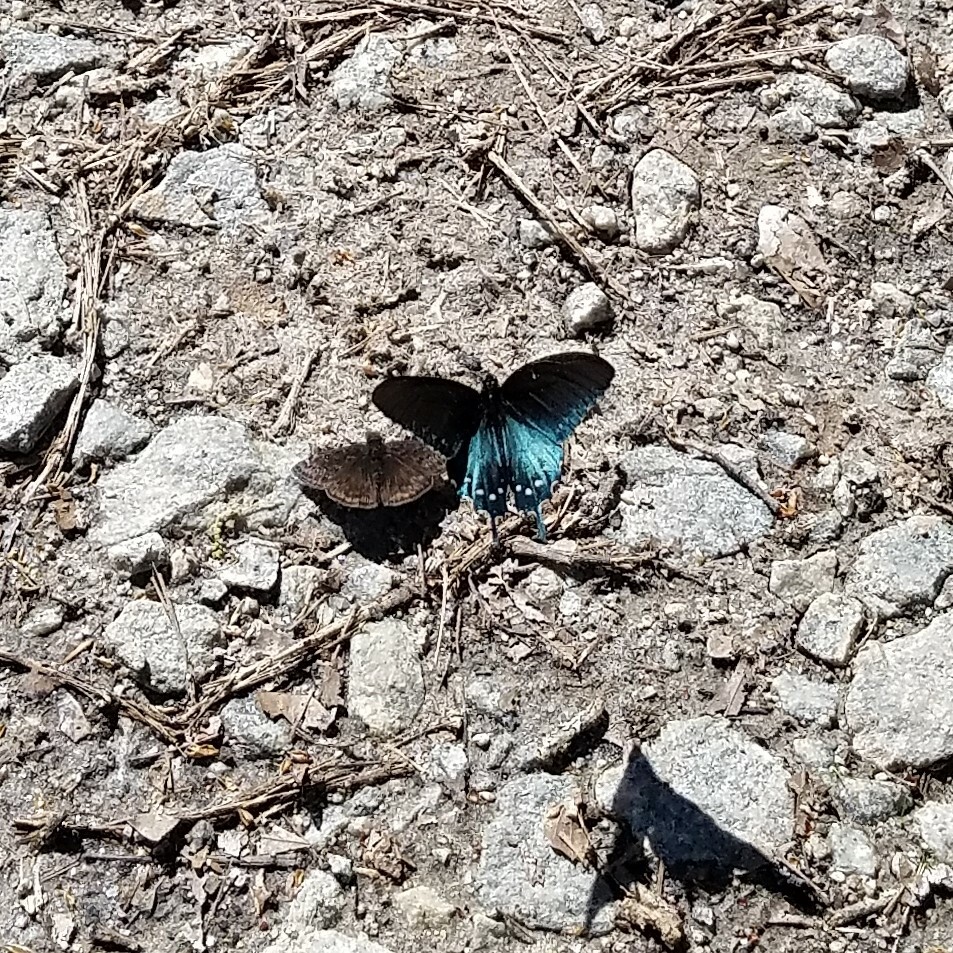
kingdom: Animalia
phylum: Arthropoda
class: Insecta
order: Lepidoptera
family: Papilionidae
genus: Battus
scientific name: Battus philenor
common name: Pipevine swallowtail
